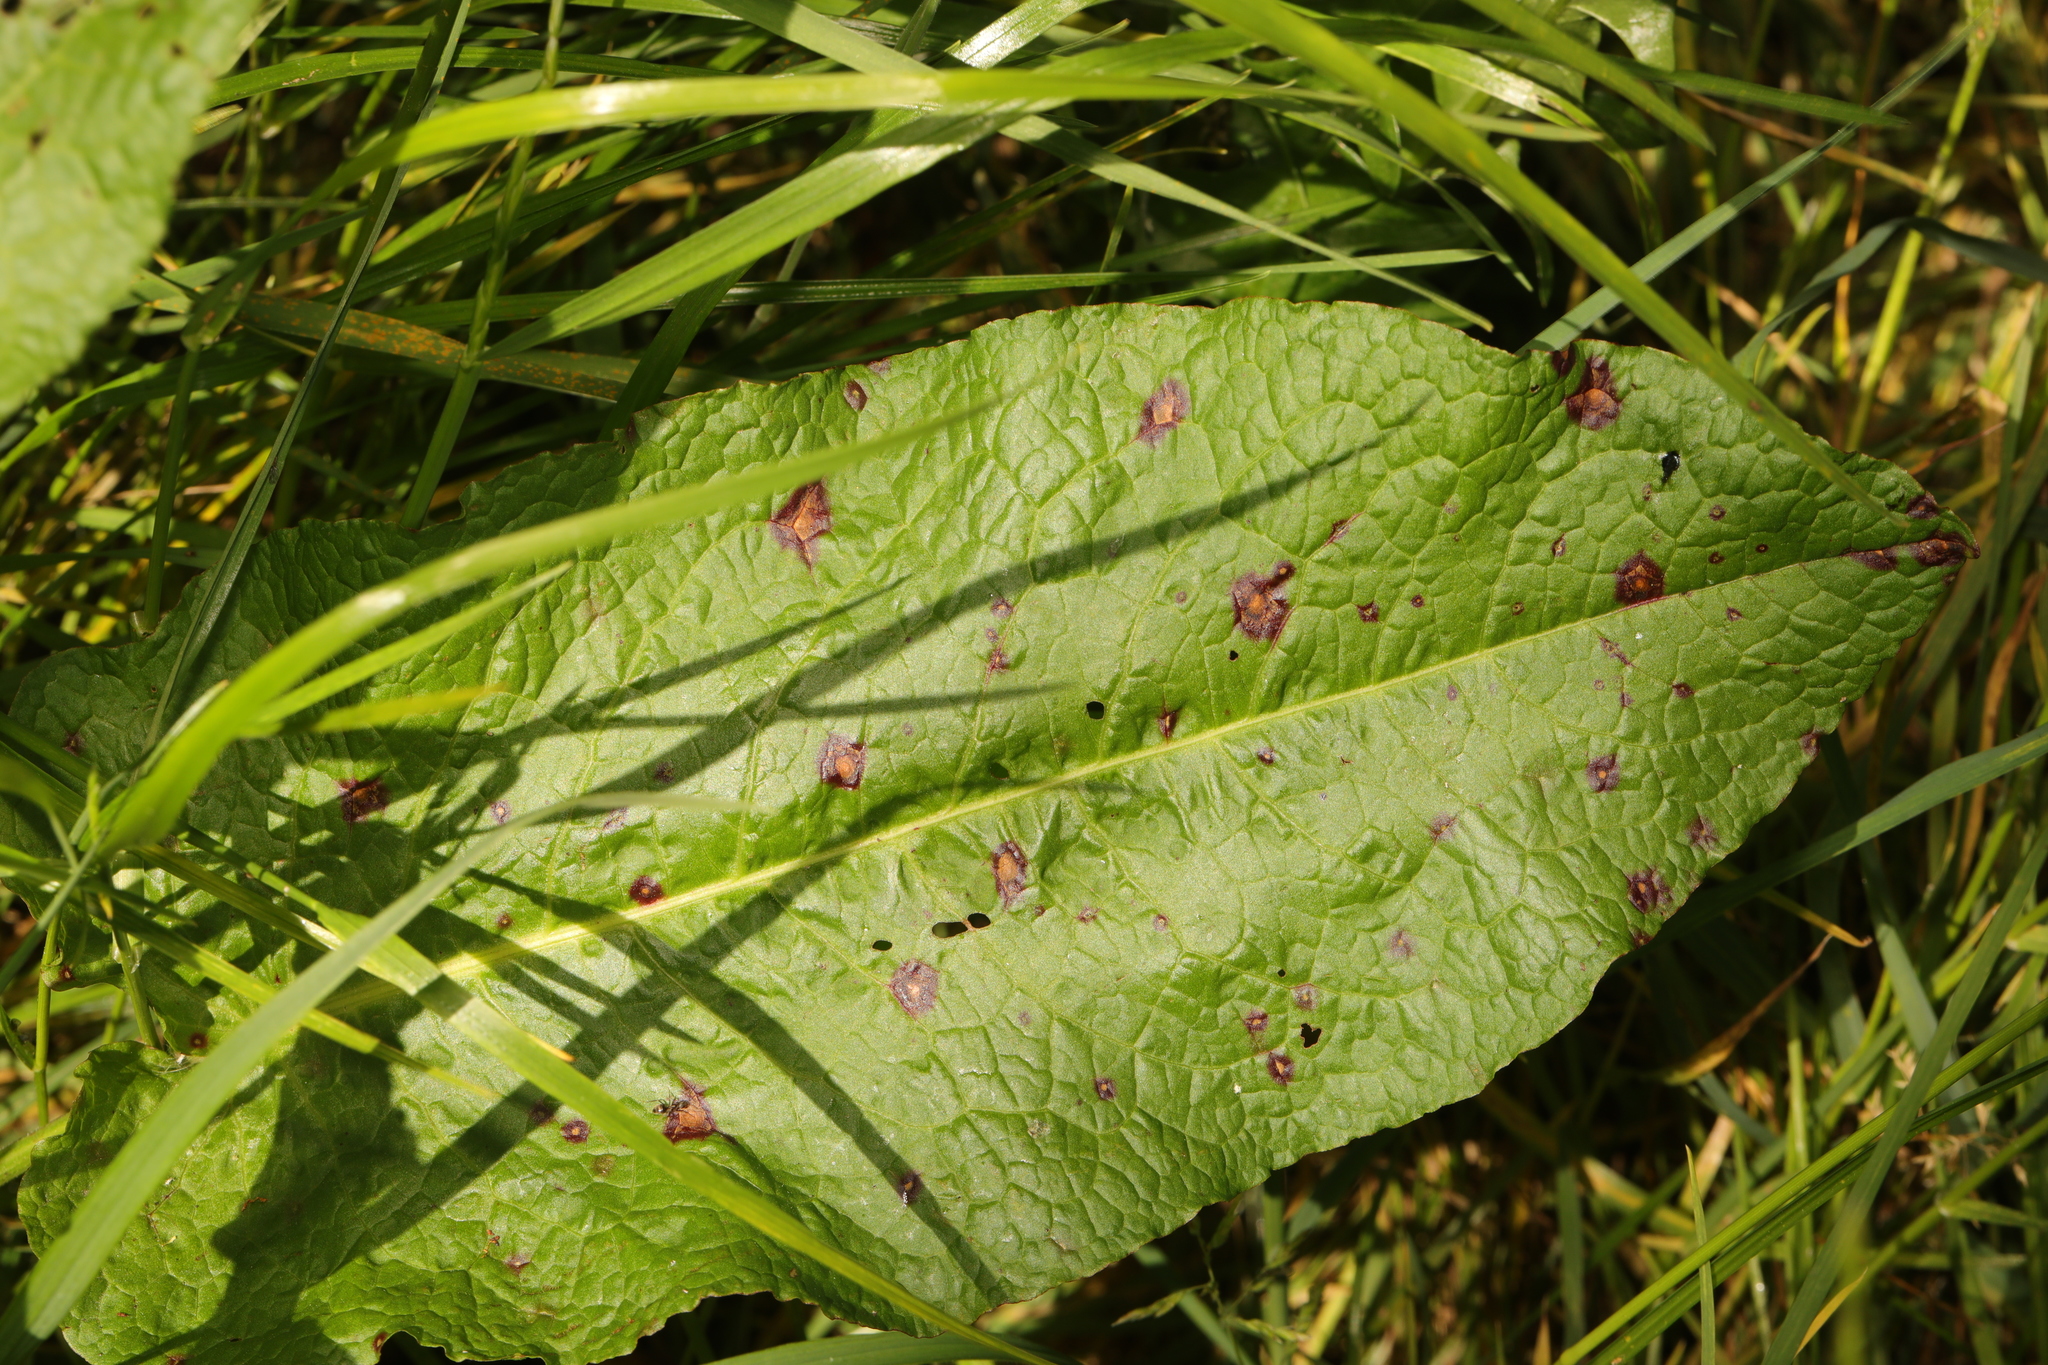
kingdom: Fungi
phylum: Ascomycota
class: Dothideomycetes
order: Mycosphaerellales
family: Mycosphaerellaceae
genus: Ramularia
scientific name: Ramularia rubella
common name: Red dock spot
